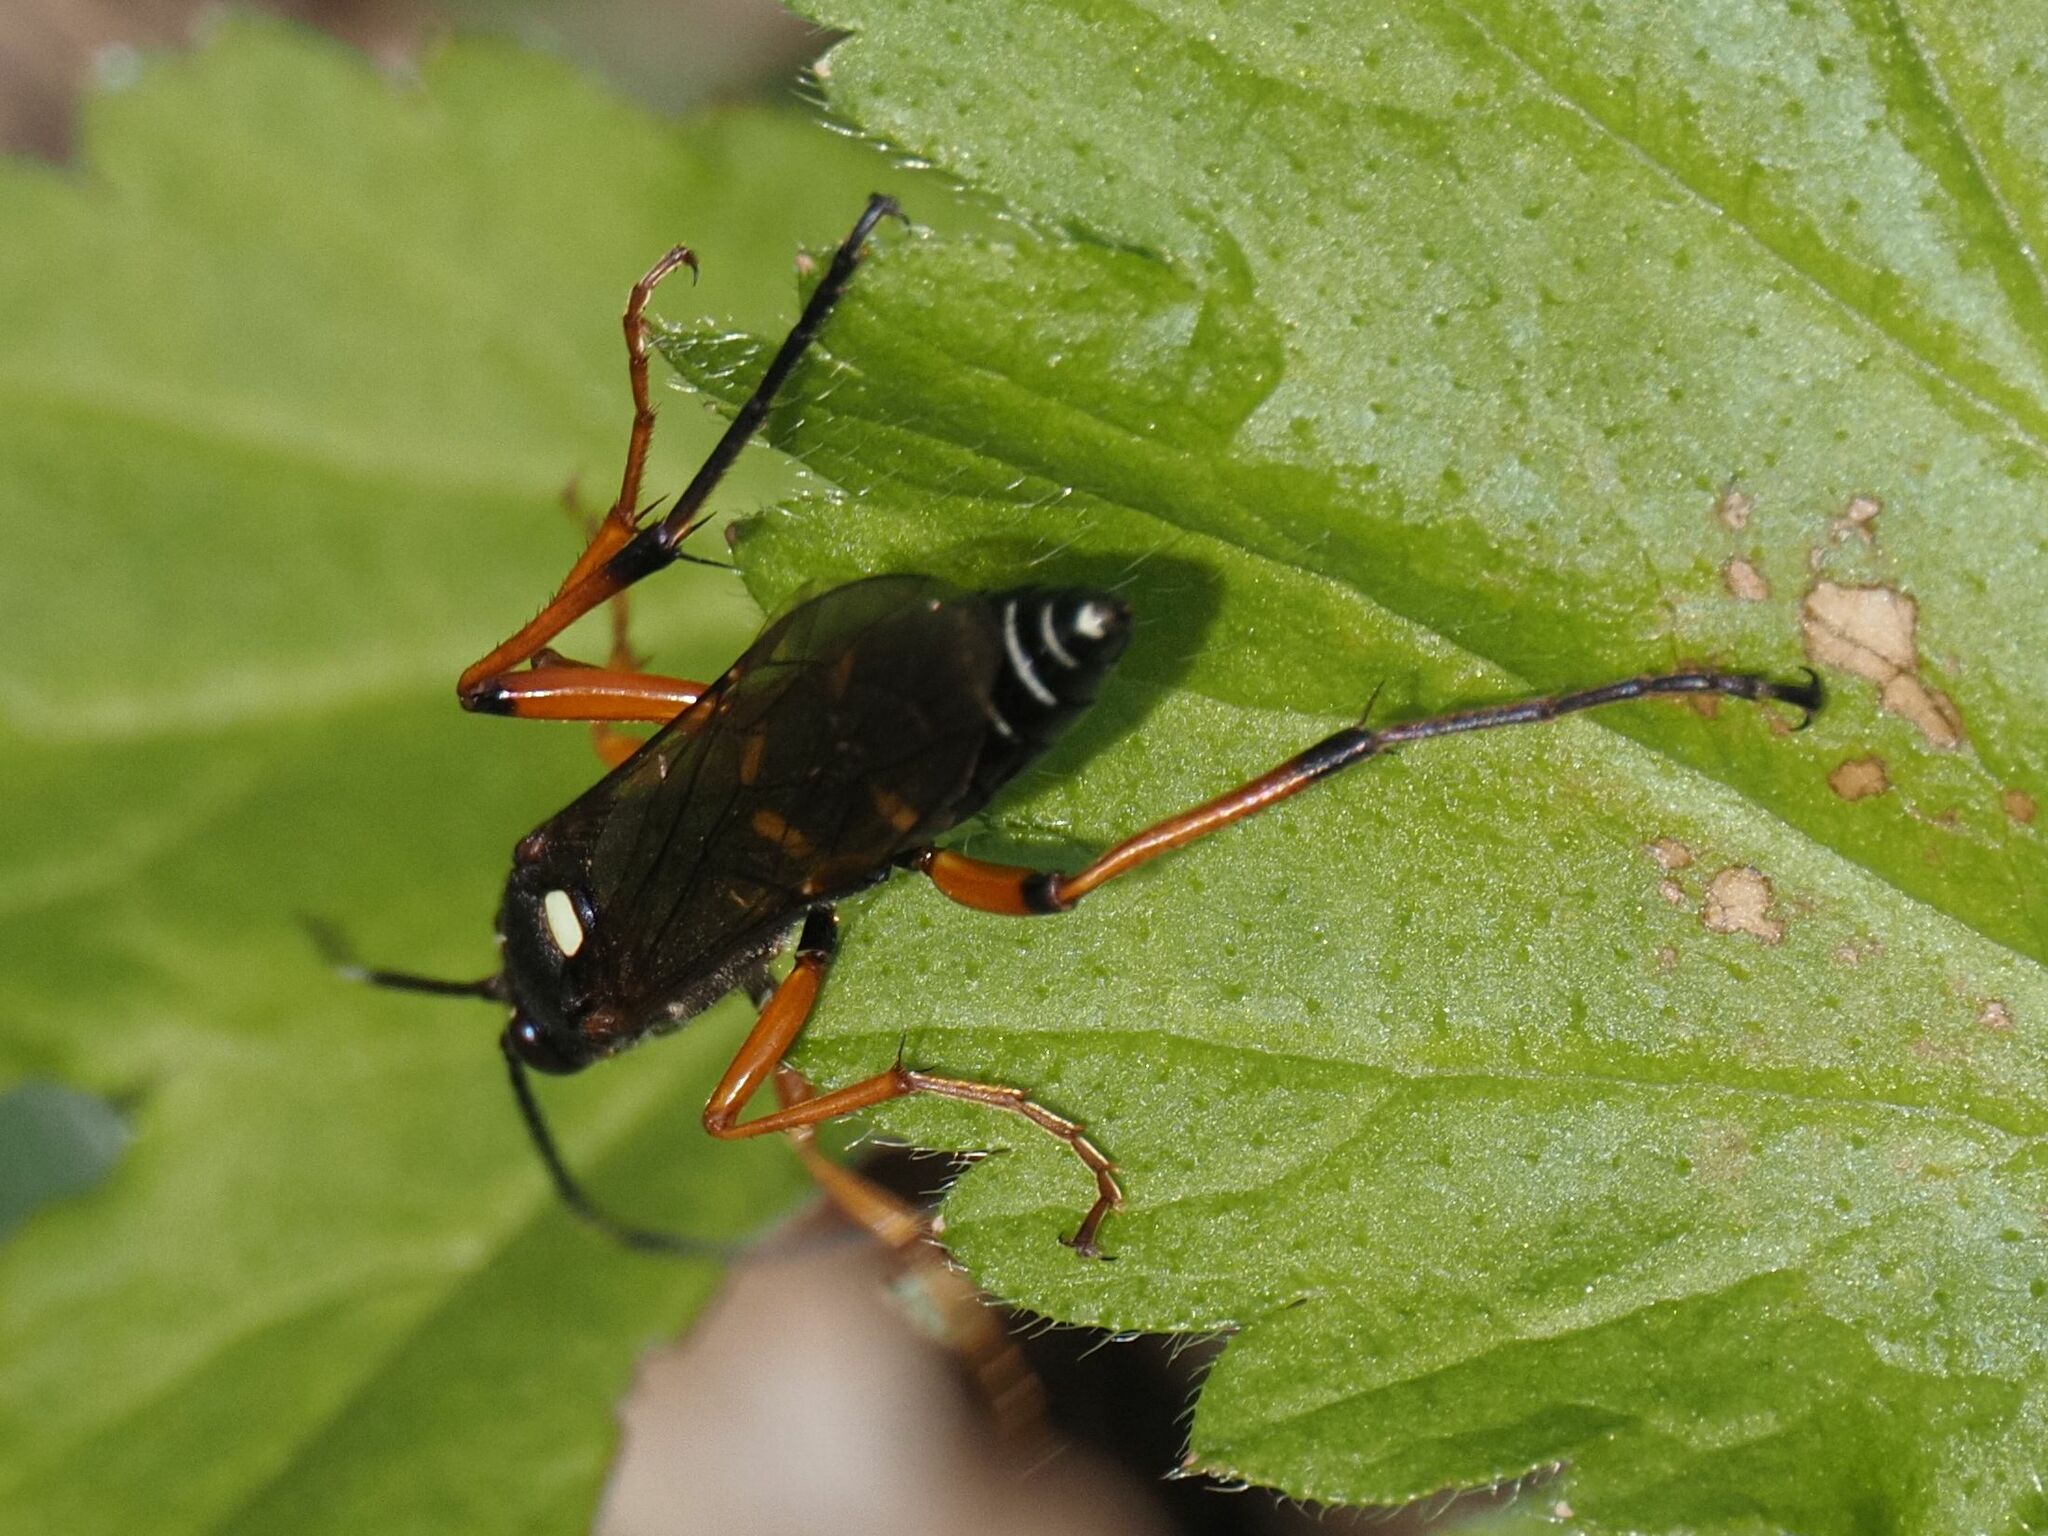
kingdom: Animalia
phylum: Arthropoda
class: Insecta
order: Hymenoptera
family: Ichneumonidae
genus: Diphyus
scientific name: Diphyus quadripunctorius
